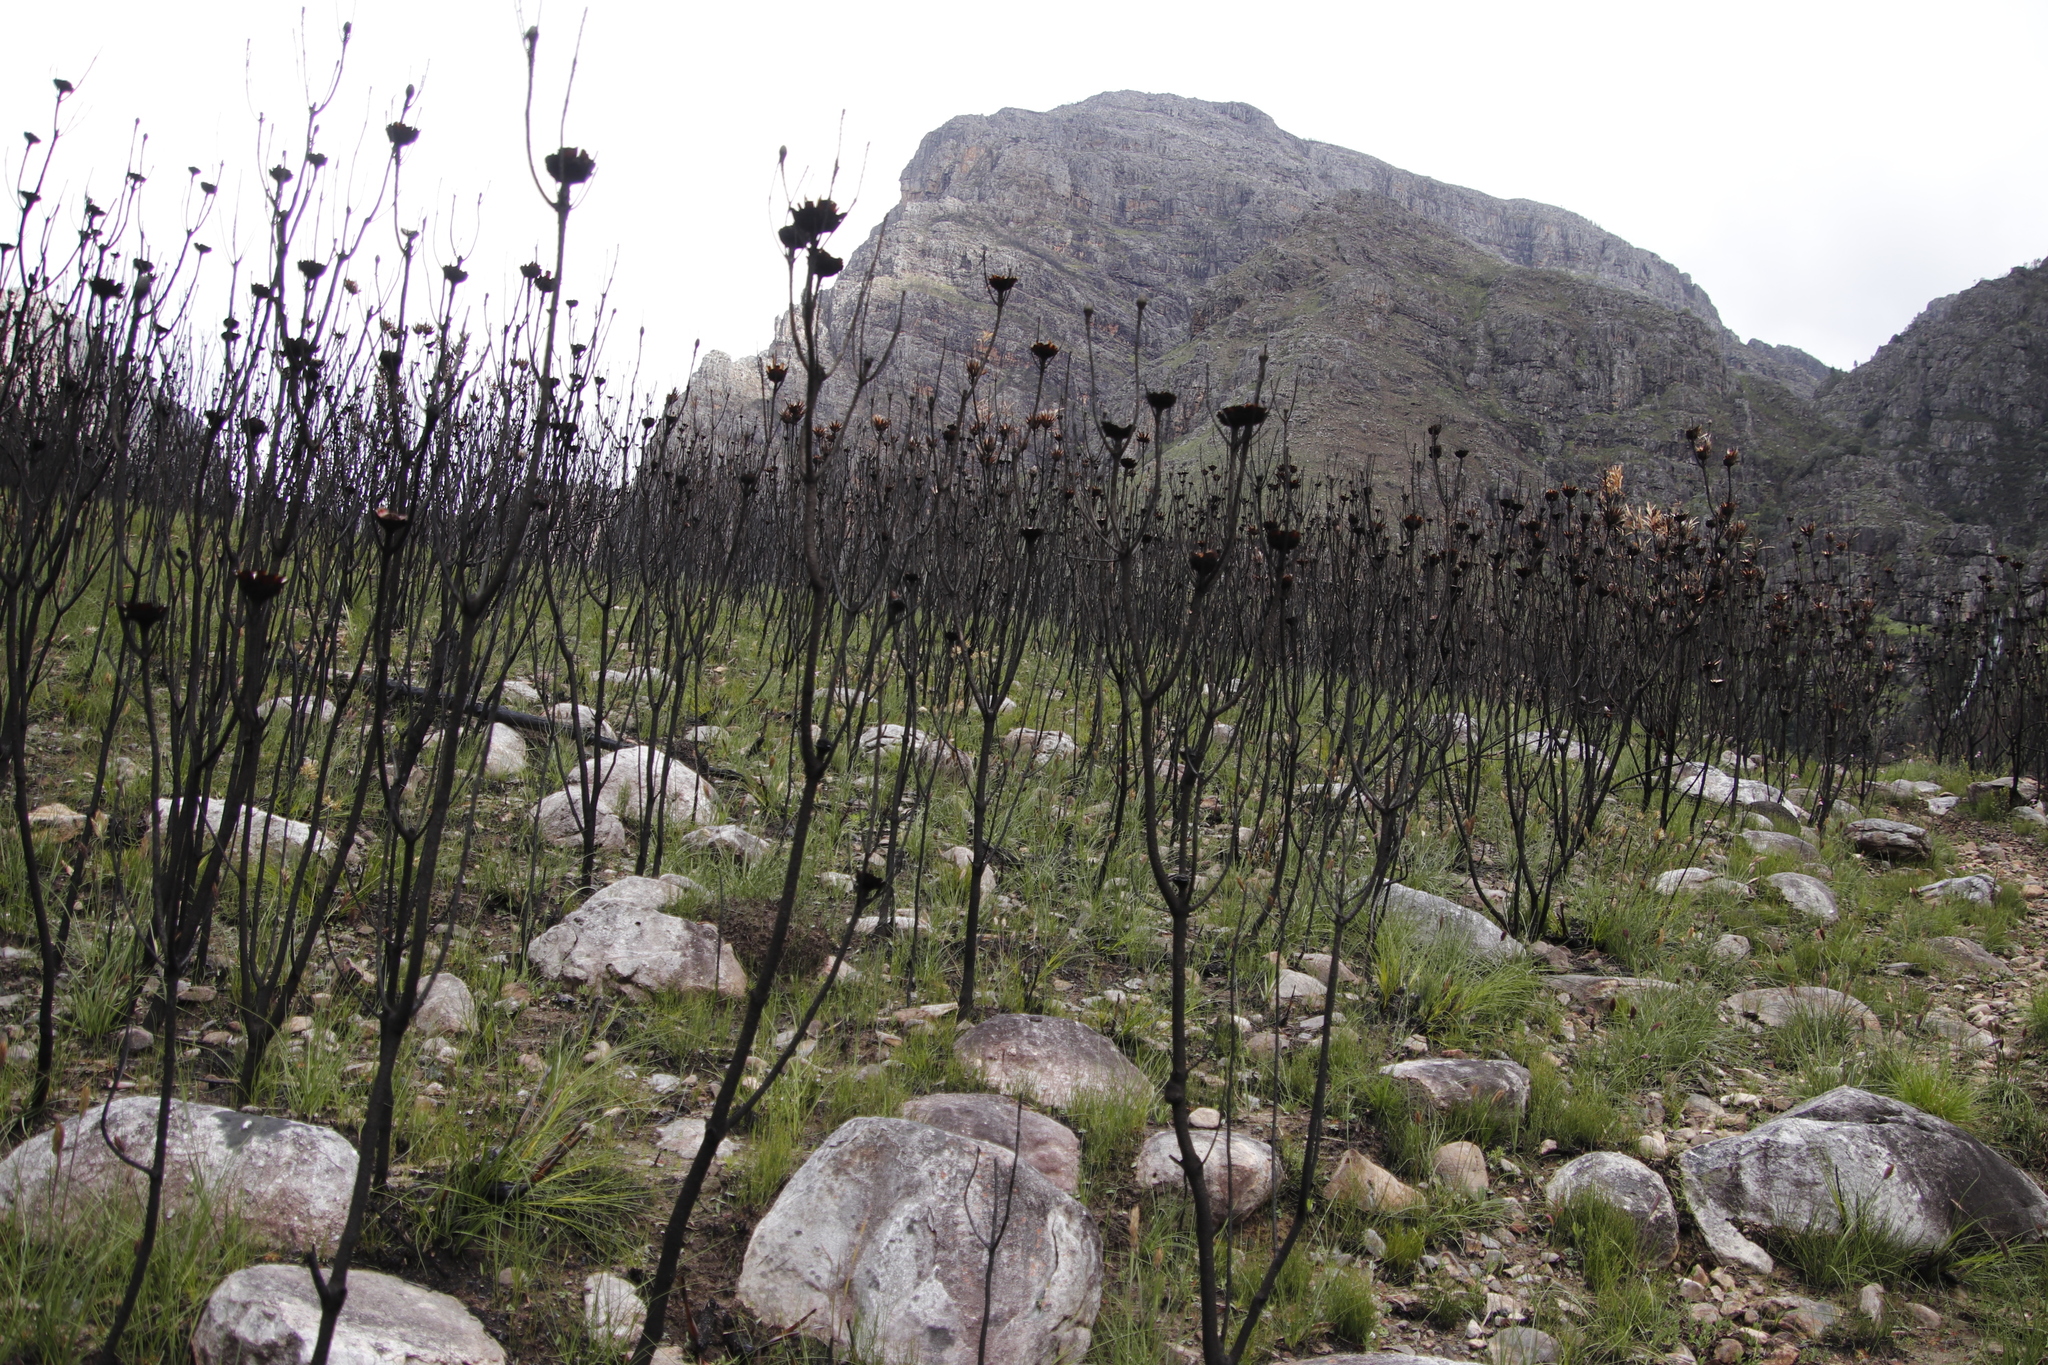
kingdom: Plantae
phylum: Tracheophyta
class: Magnoliopsida
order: Proteales
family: Proteaceae
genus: Protea
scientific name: Protea repens
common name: Sugarbush
